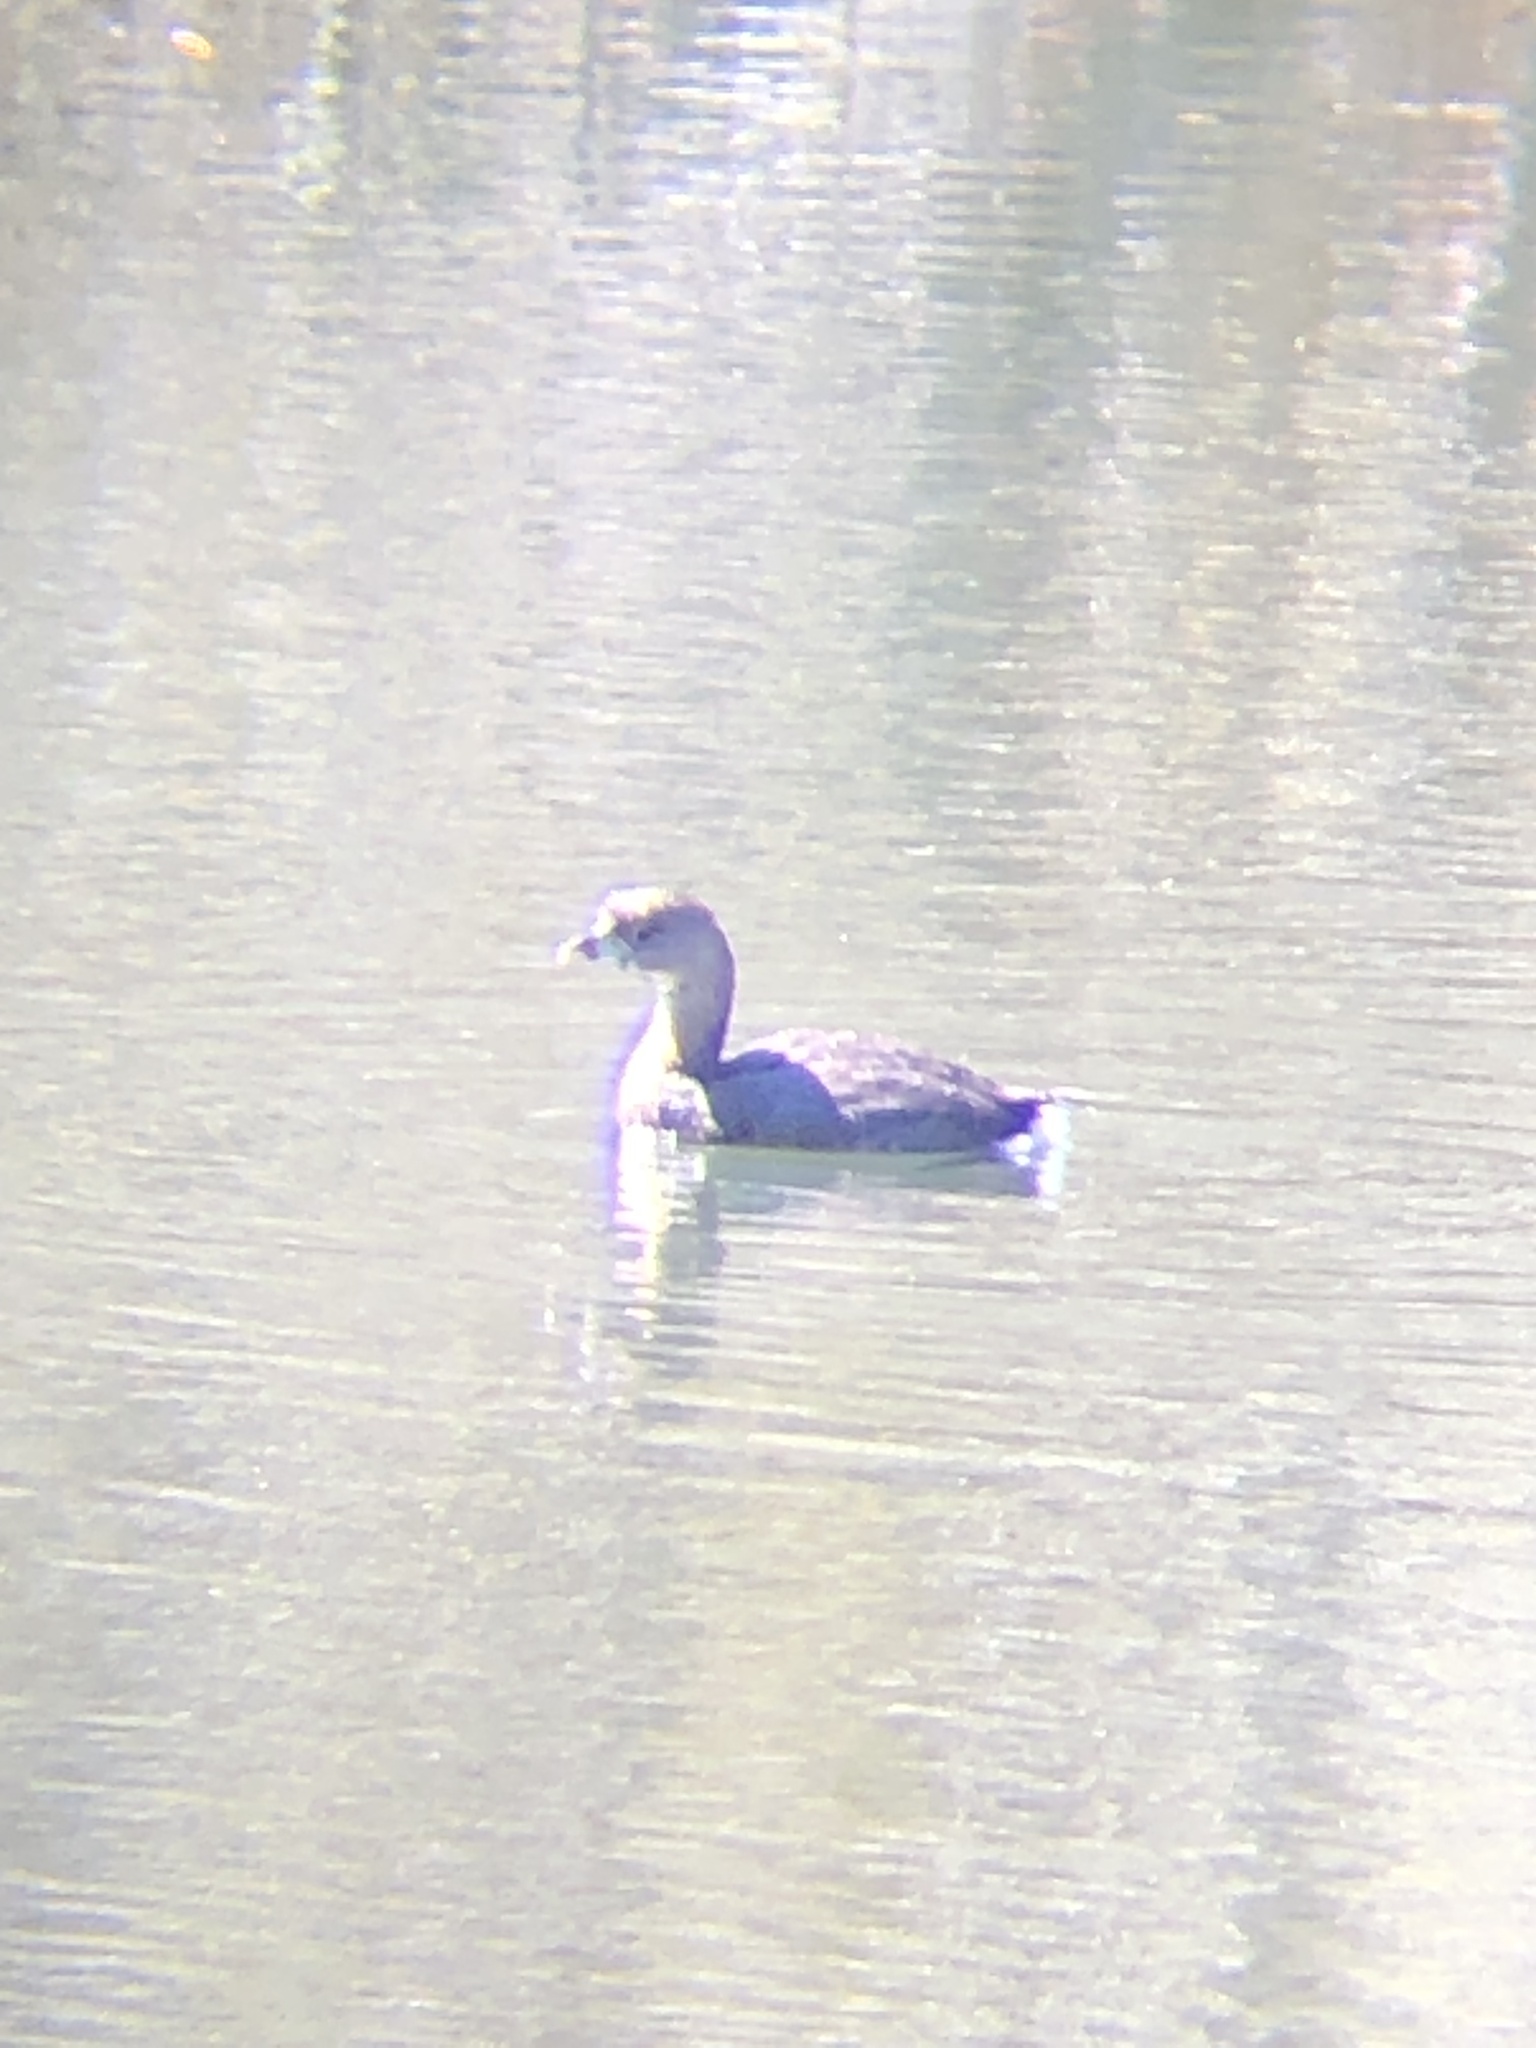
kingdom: Animalia
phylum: Chordata
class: Aves
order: Podicipediformes
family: Podicipedidae
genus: Podilymbus
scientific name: Podilymbus podiceps
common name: Pied-billed grebe
